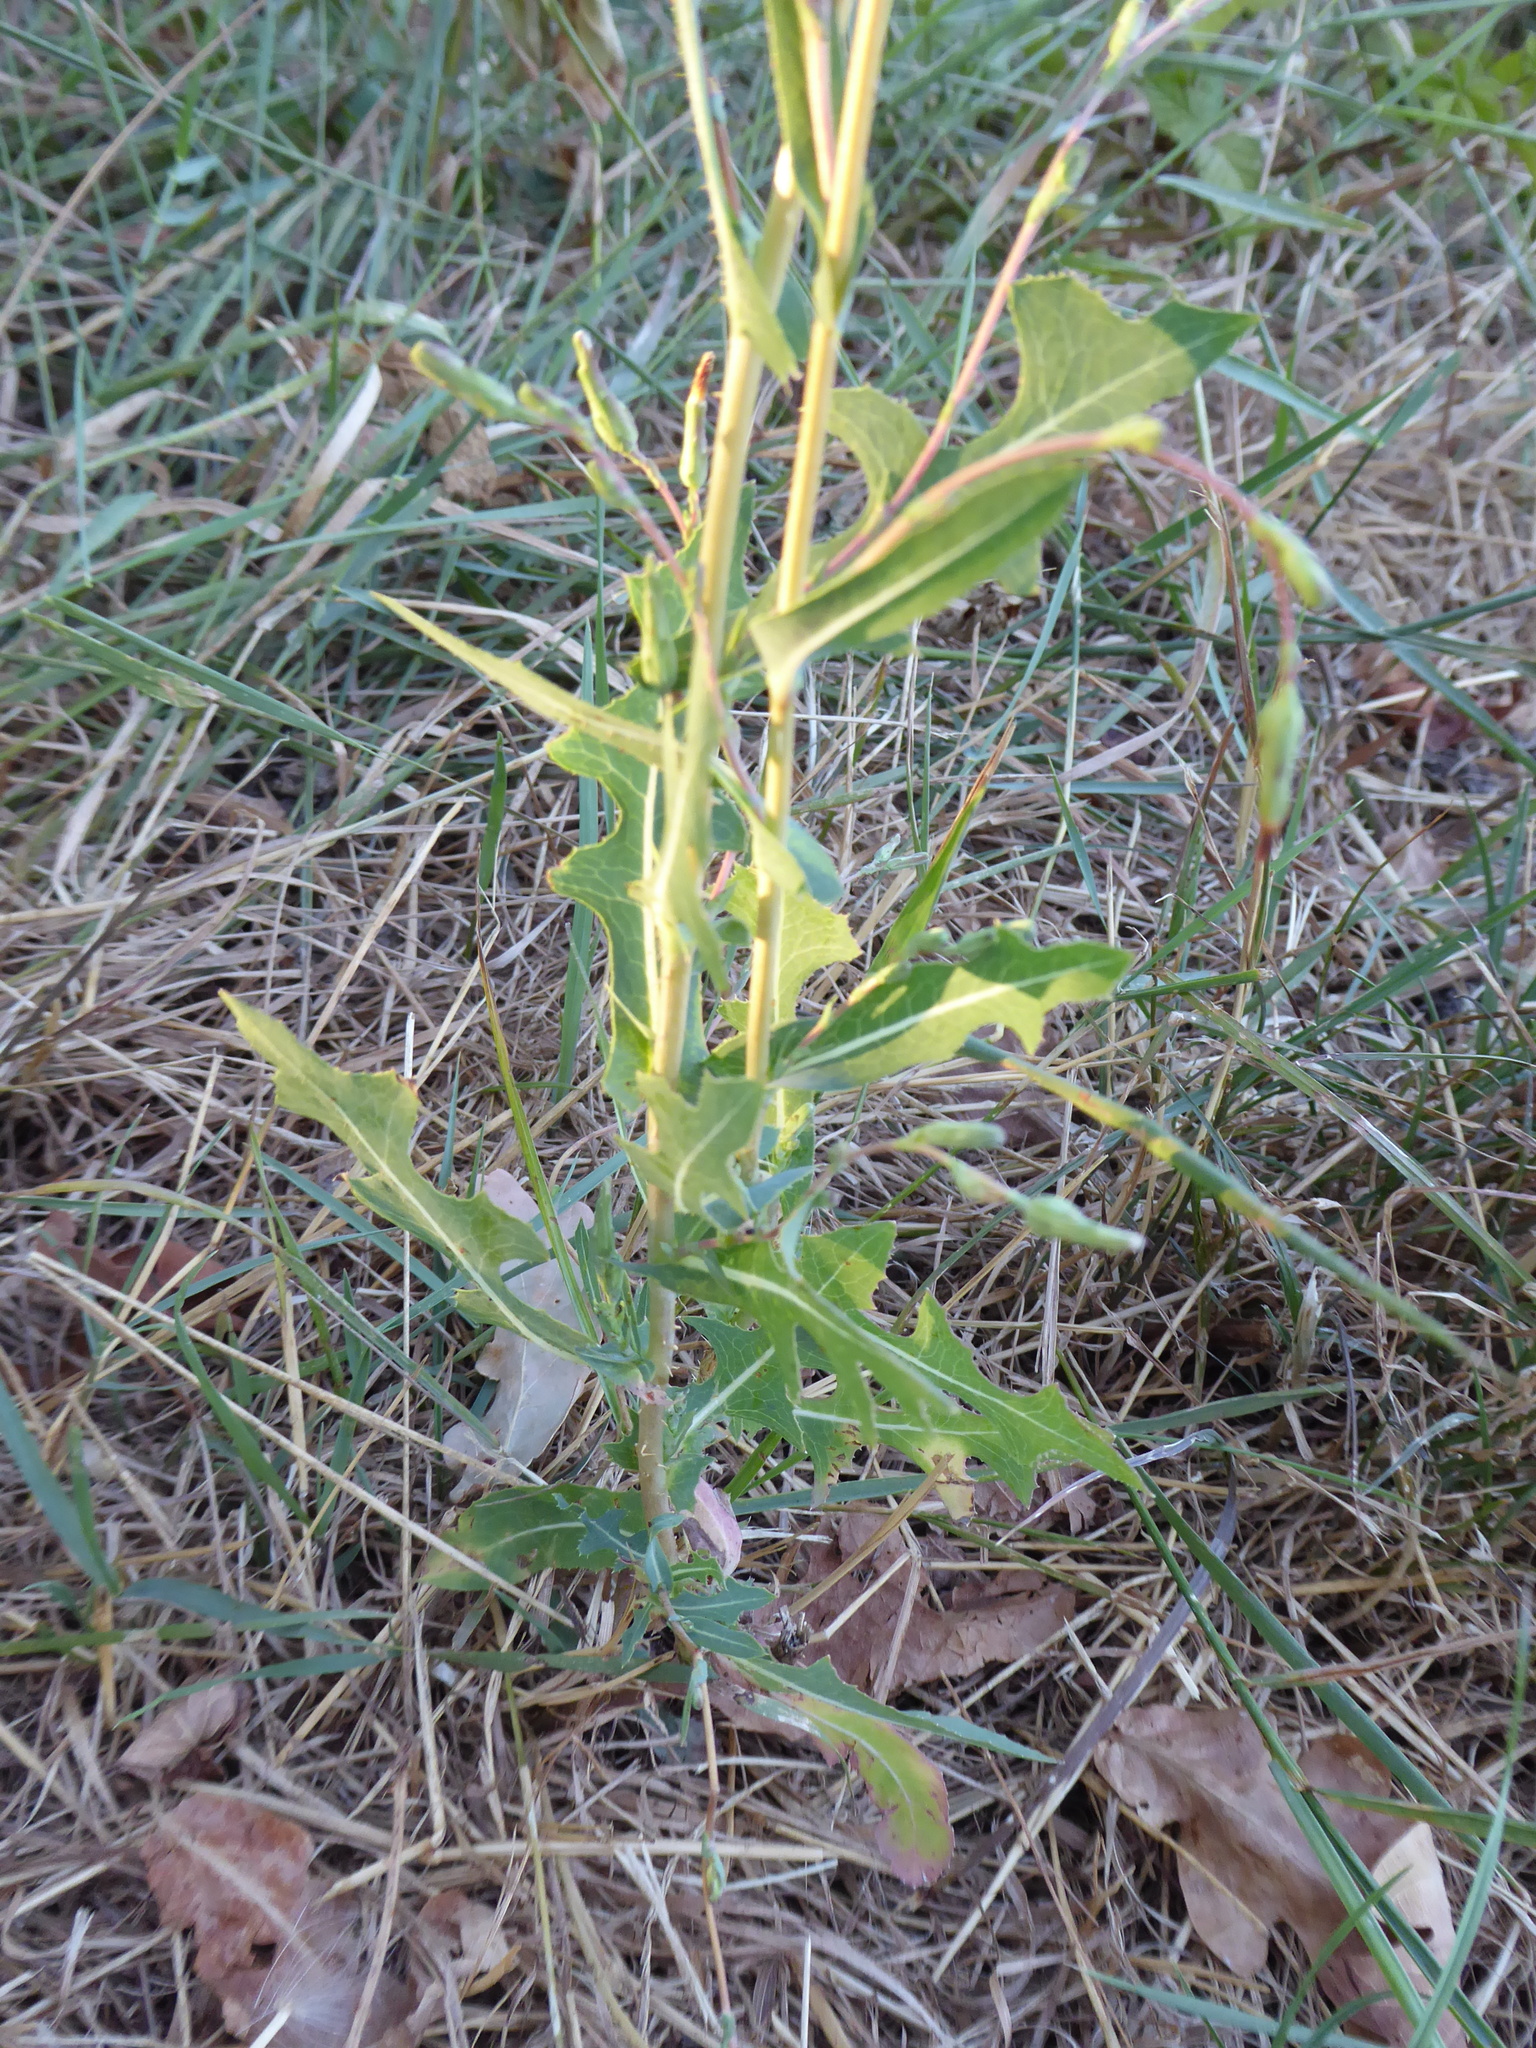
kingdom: Plantae
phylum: Tracheophyta
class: Magnoliopsida
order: Asterales
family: Asteraceae
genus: Lactuca
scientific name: Lactuca
